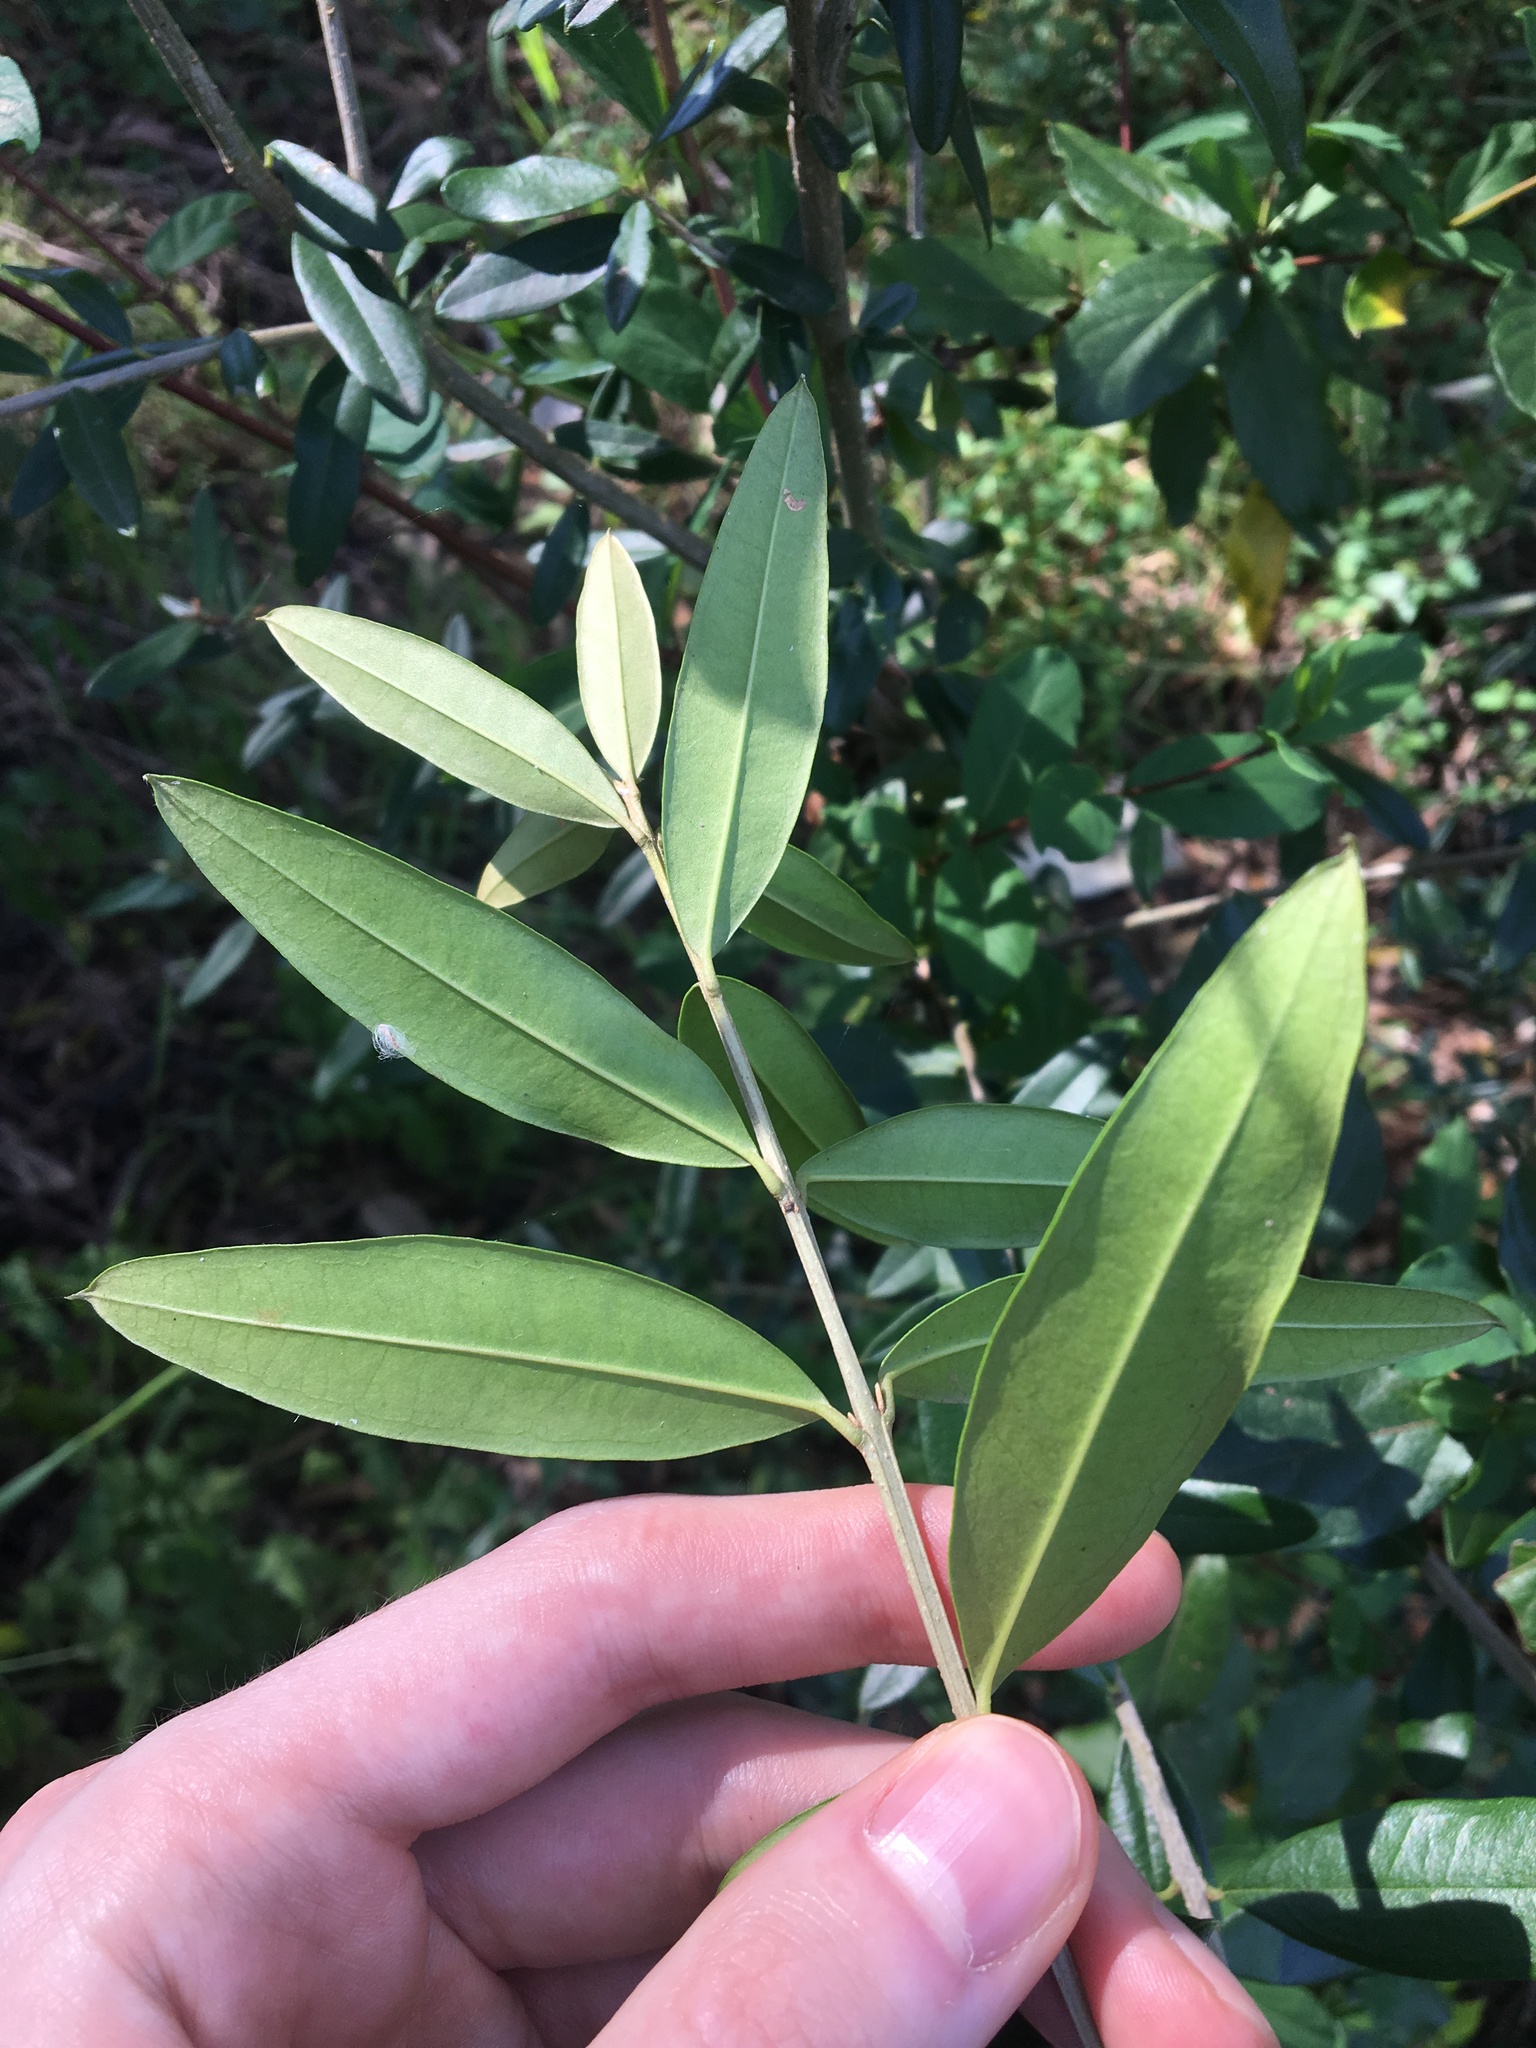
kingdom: Plantae
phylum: Tracheophyta
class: Magnoliopsida
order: Lamiales
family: Oleaceae
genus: Olea
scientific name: Olea europaea
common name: Olive
